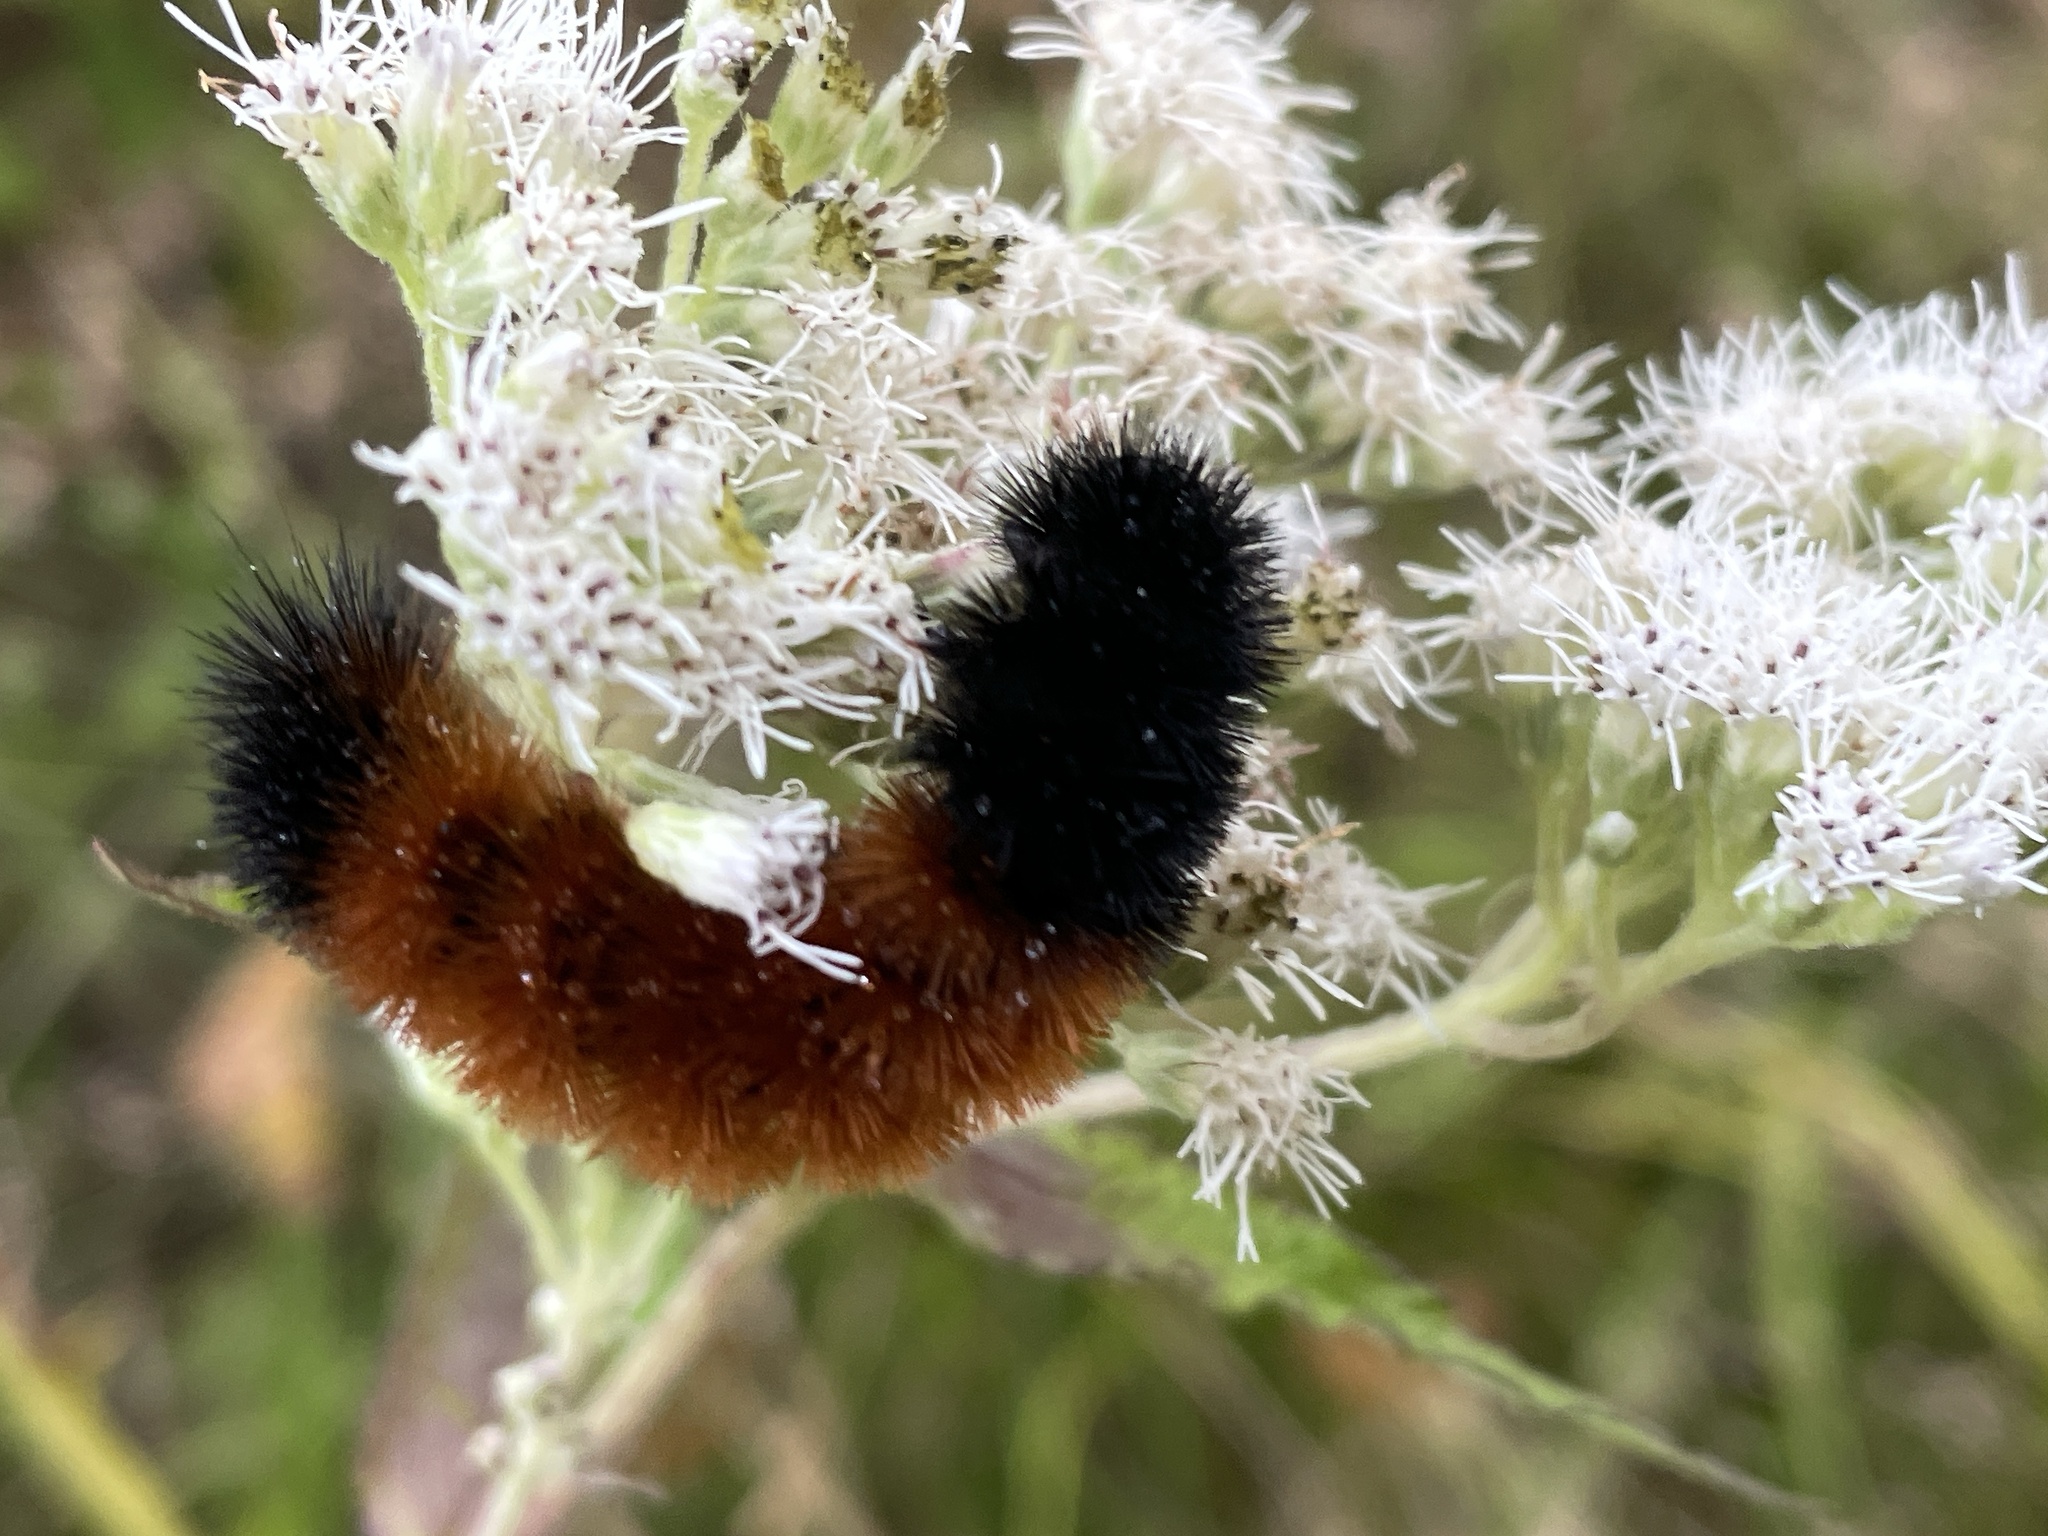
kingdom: Animalia
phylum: Arthropoda
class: Insecta
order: Lepidoptera
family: Erebidae
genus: Pyrrharctia
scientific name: Pyrrharctia isabella
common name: Isabella tiger moth
